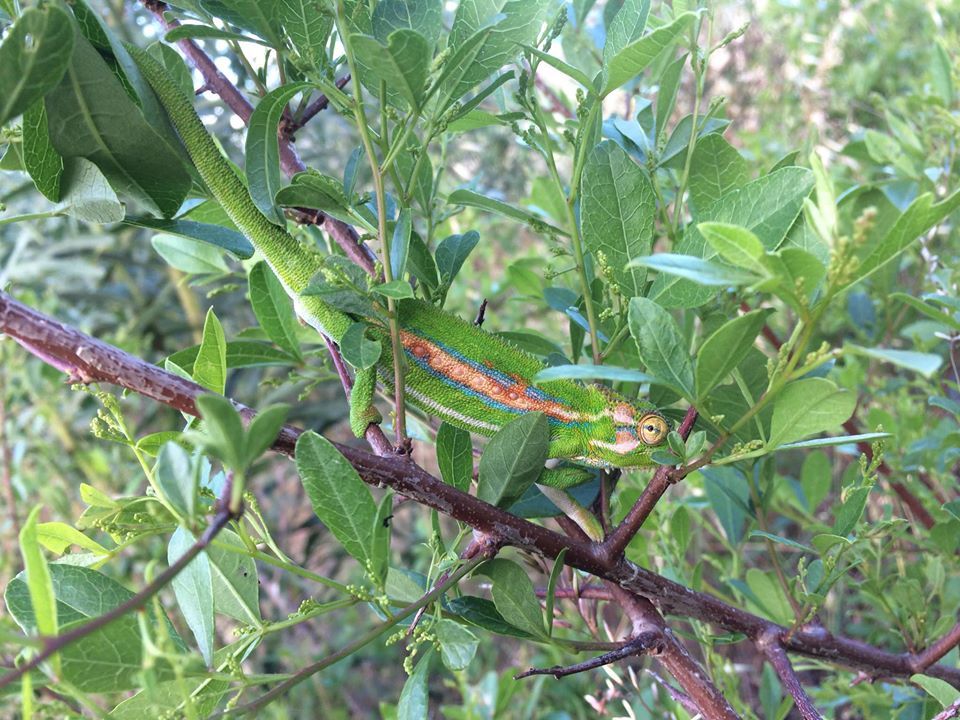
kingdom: Animalia
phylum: Chordata
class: Squamata
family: Chamaeleonidae
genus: Bradypodion
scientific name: Bradypodion pumilum
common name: Cape dwarf chameleon
